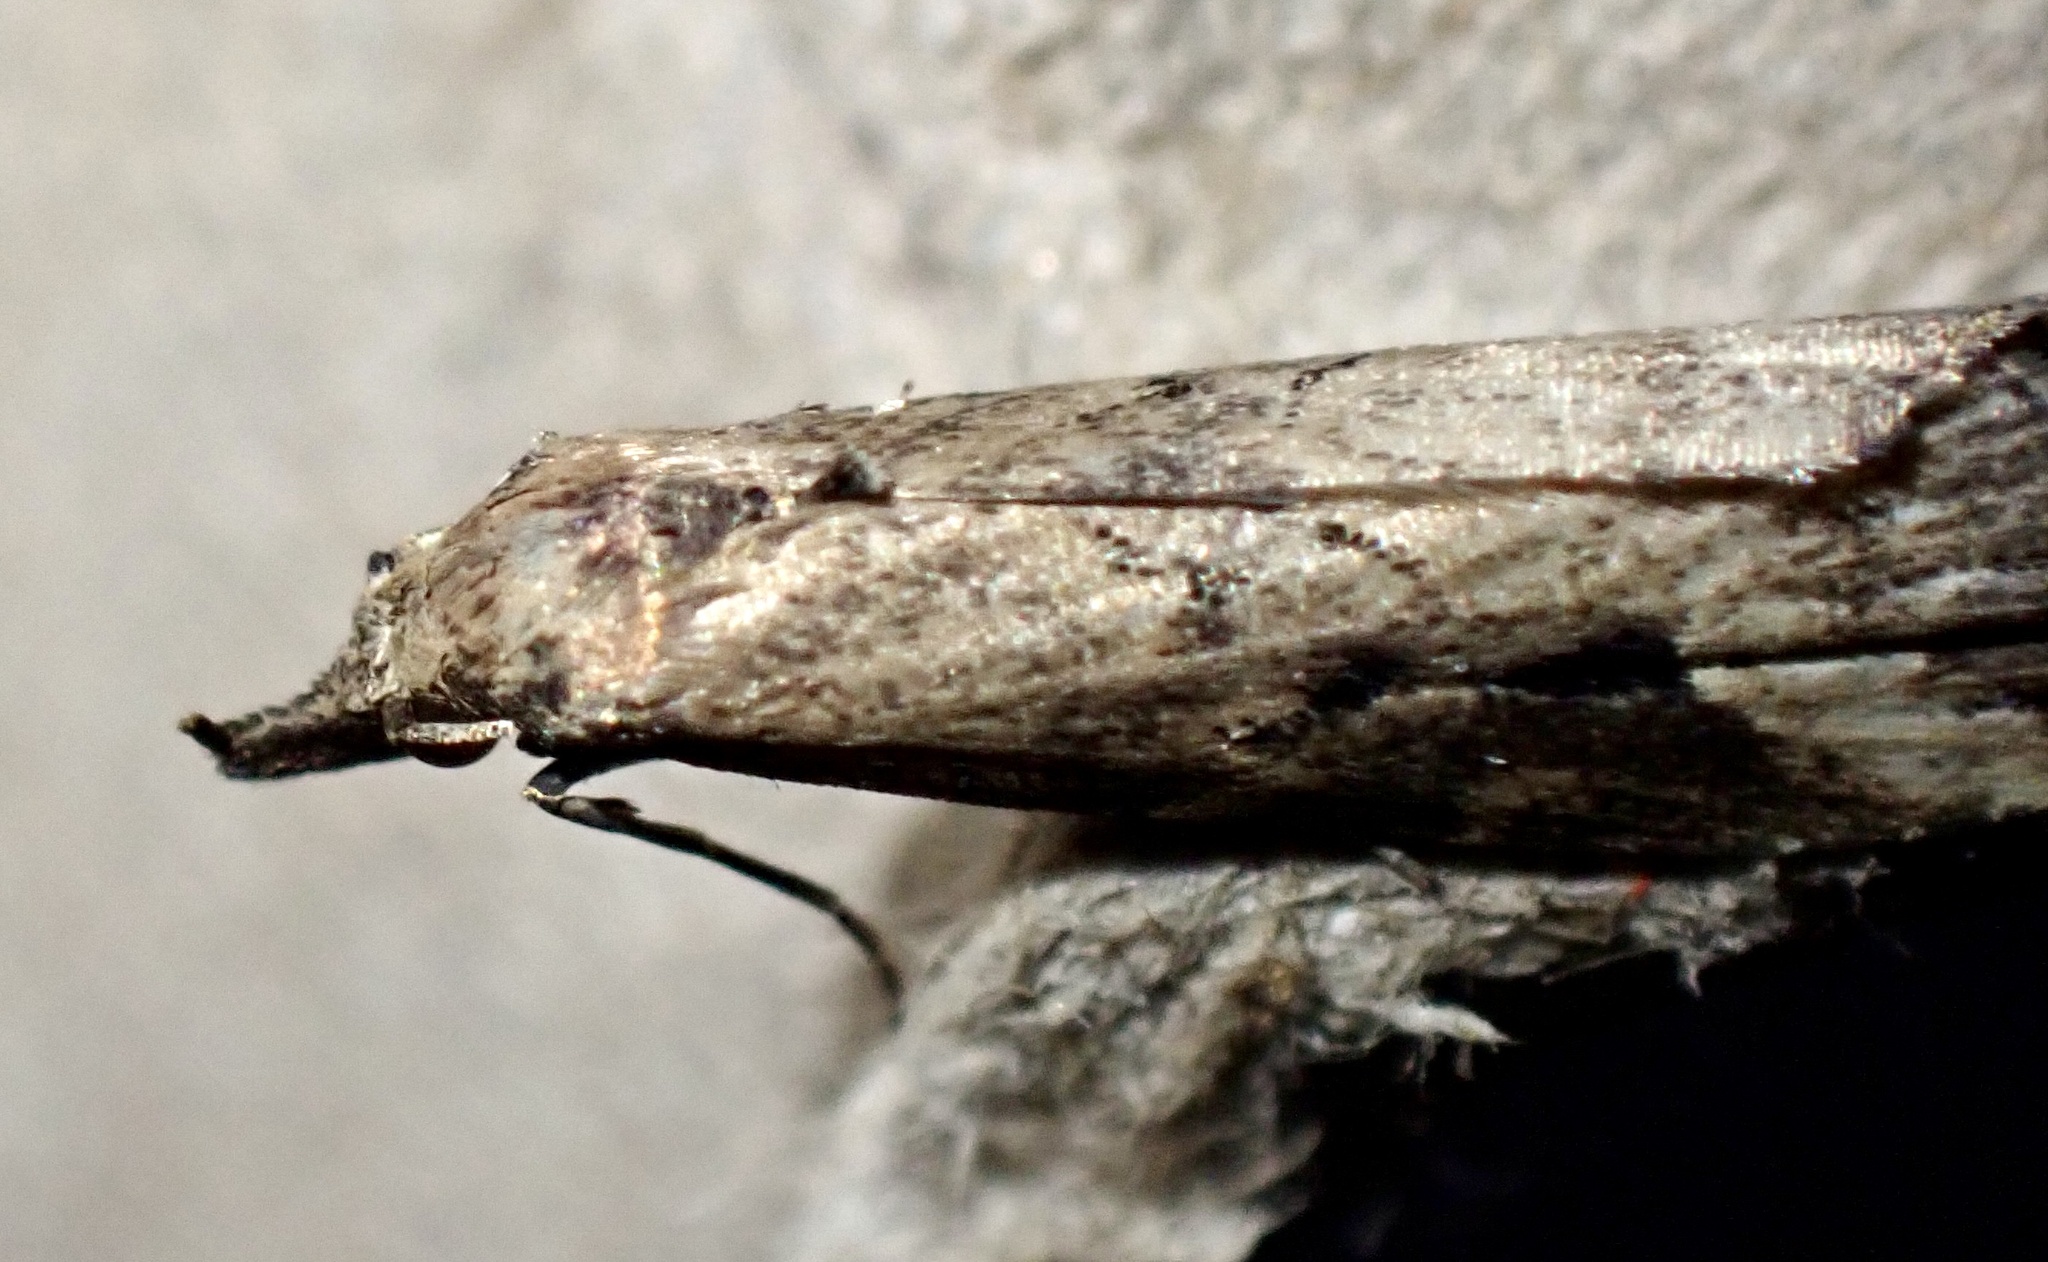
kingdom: Animalia
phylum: Arthropoda
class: Insecta
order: Lepidoptera
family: Erebidae
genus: Schrankia
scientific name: Schrankia costaestrigalis
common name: Pinion-streaked snout
